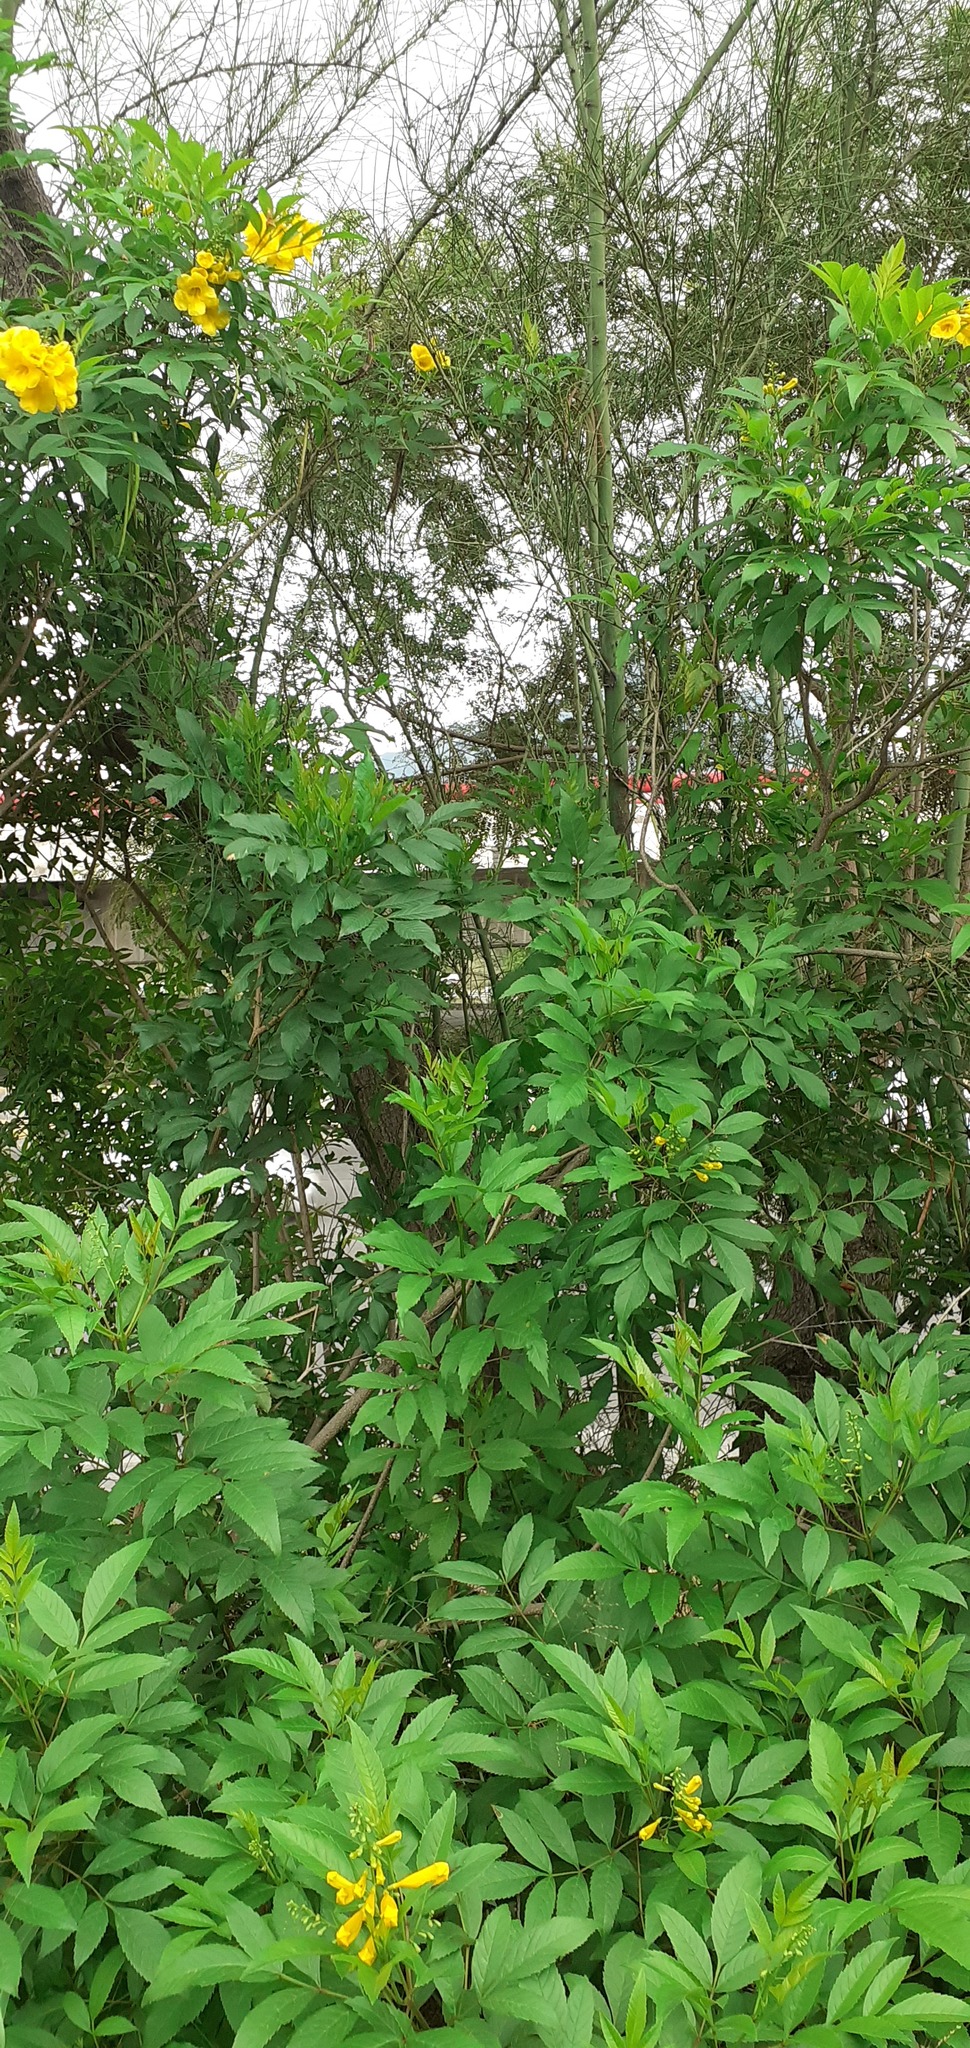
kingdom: Plantae
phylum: Tracheophyta
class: Magnoliopsida
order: Lamiales
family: Bignoniaceae
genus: Tecoma
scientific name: Tecoma stans
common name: Yellow trumpetbush
